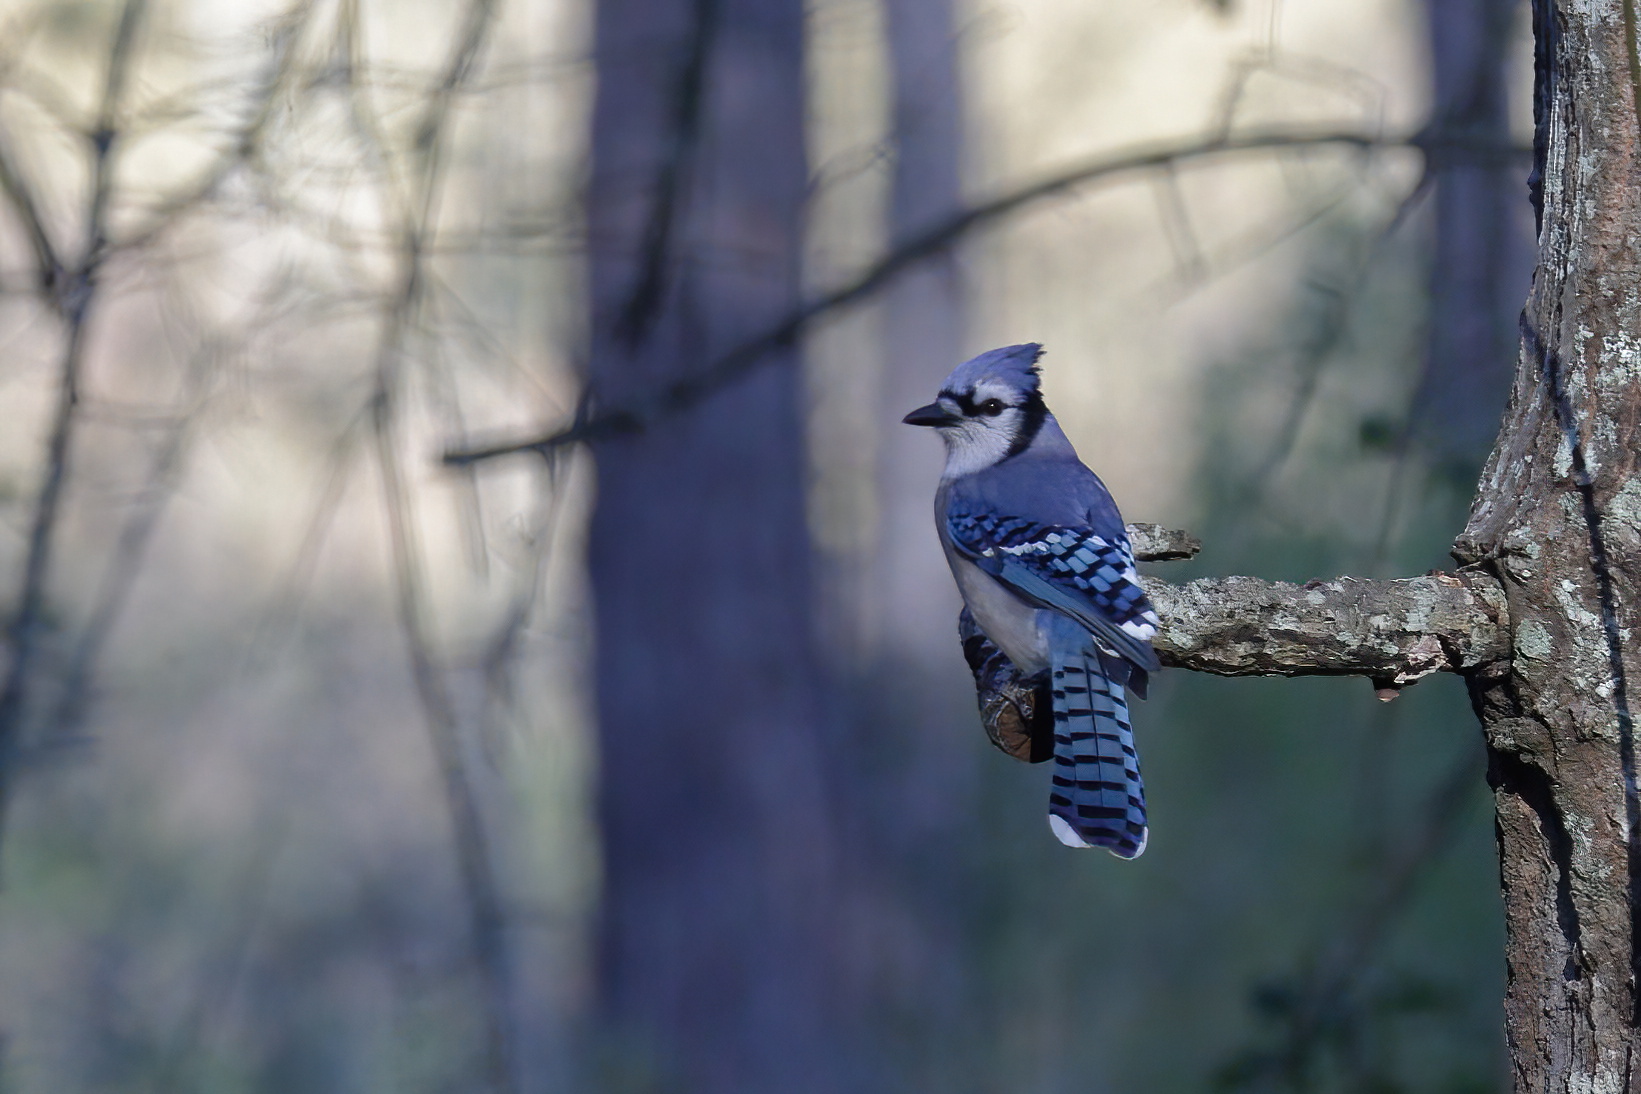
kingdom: Animalia
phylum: Chordata
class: Aves
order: Passeriformes
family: Corvidae
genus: Cyanocitta
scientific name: Cyanocitta cristata
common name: Blue jay
